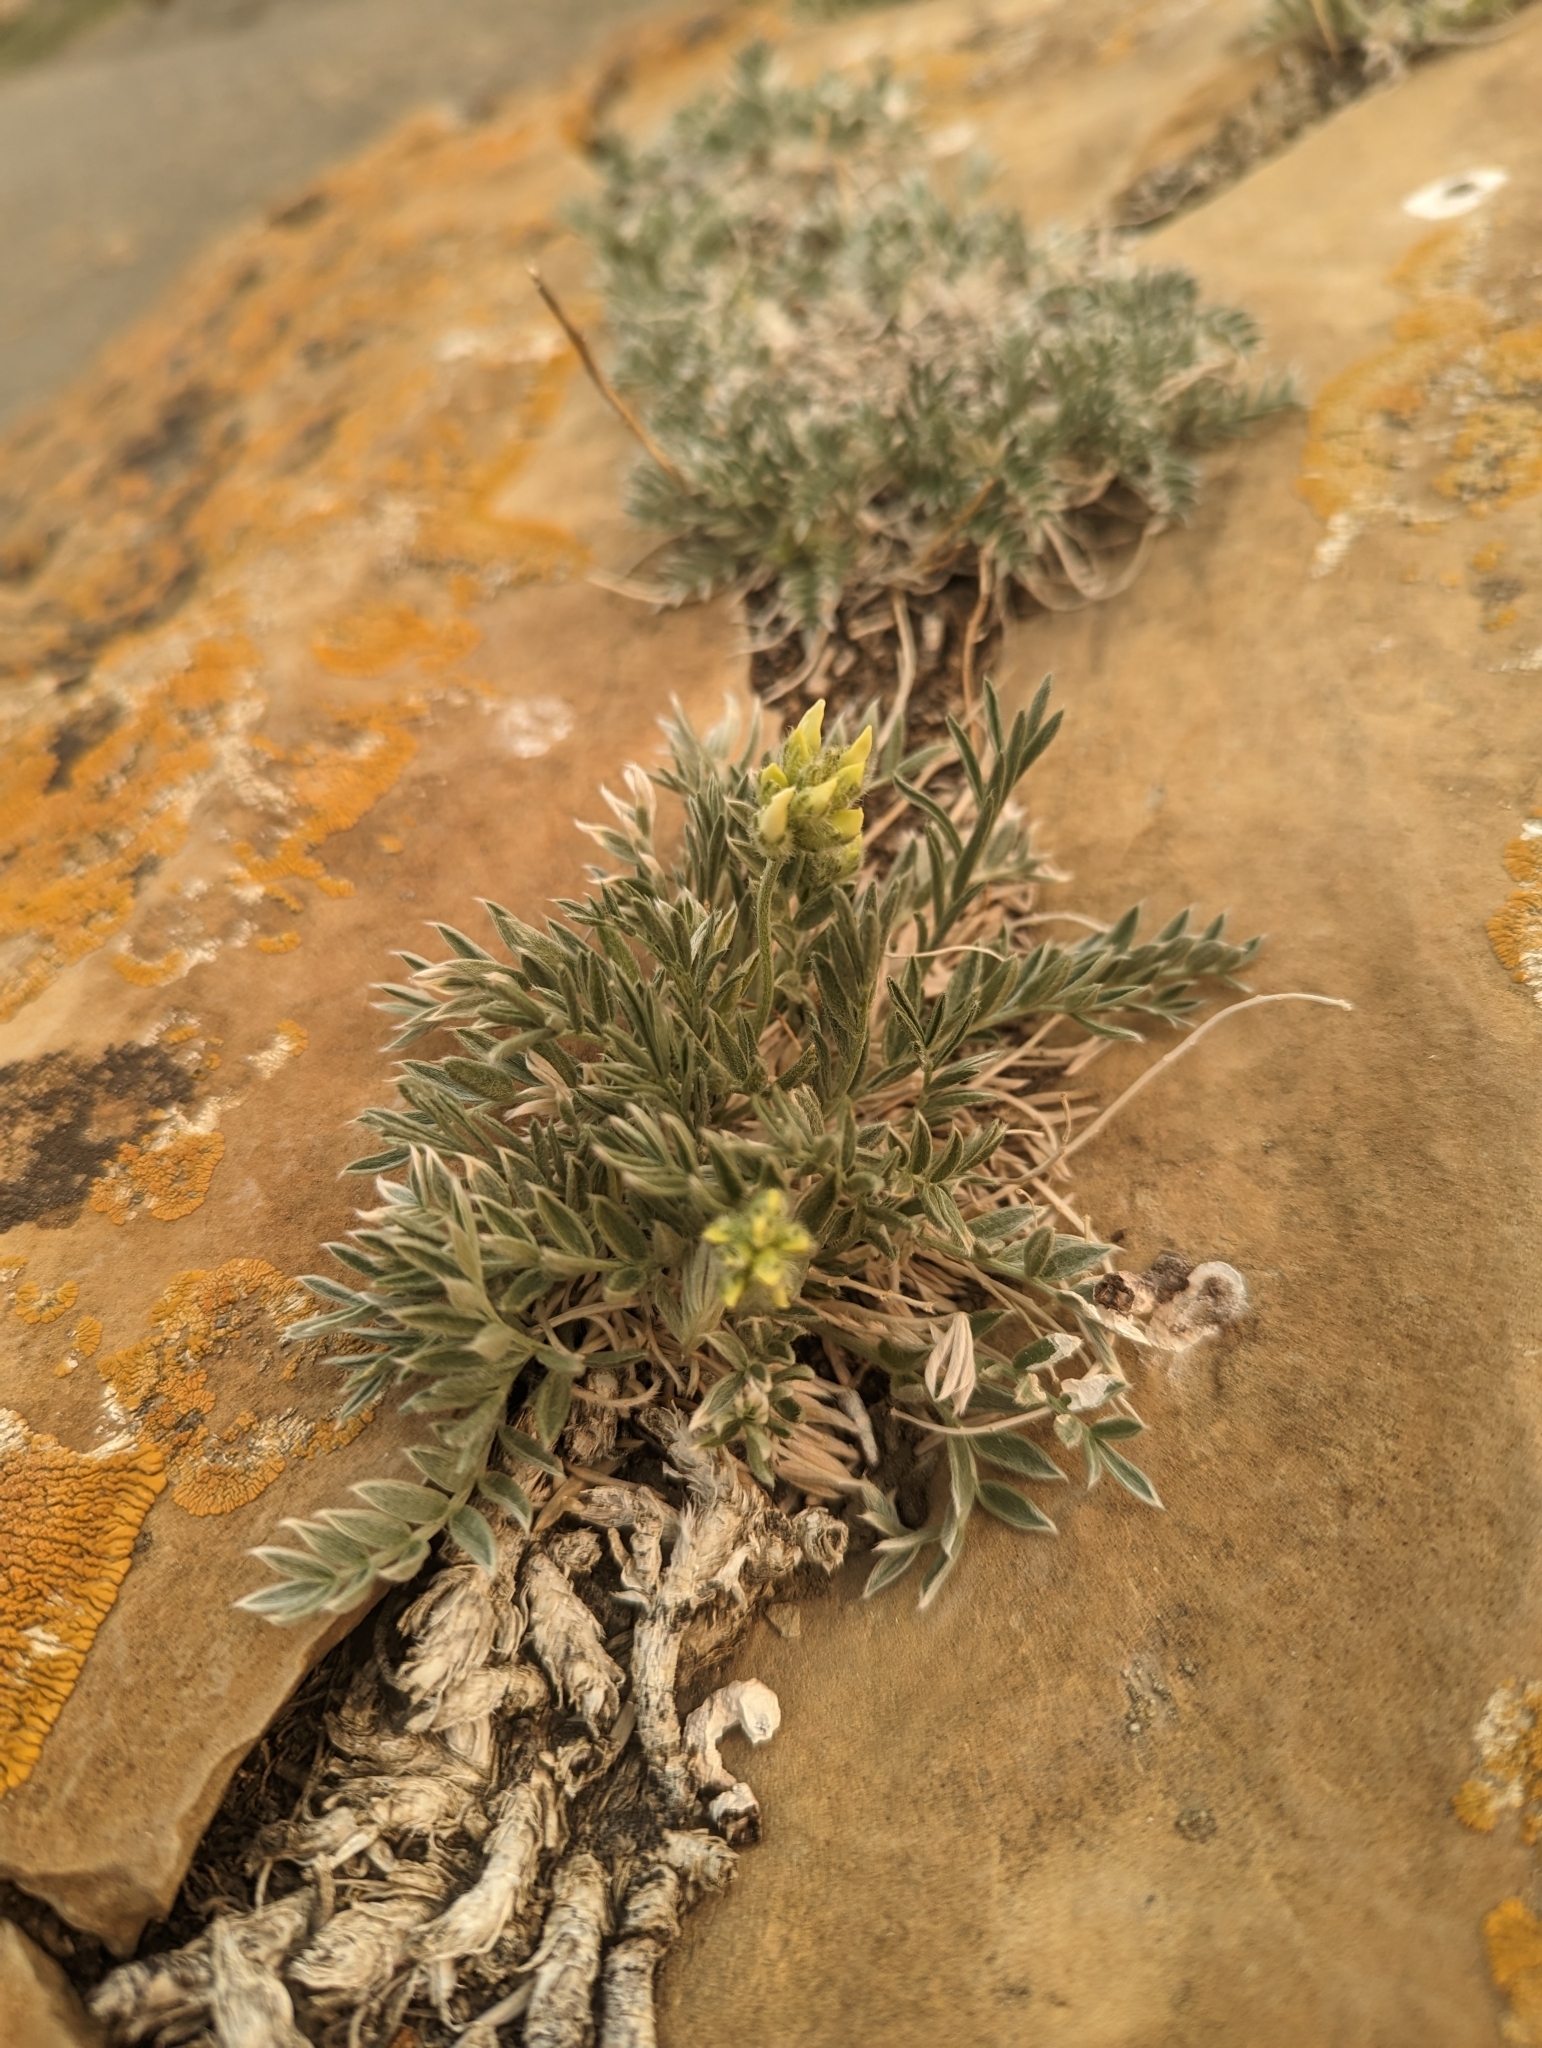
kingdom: Plantae
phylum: Tracheophyta
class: Magnoliopsida
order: Fabales
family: Fabaceae
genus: Oxytropis
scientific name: Oxytropis sericea
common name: Silky locoweed
